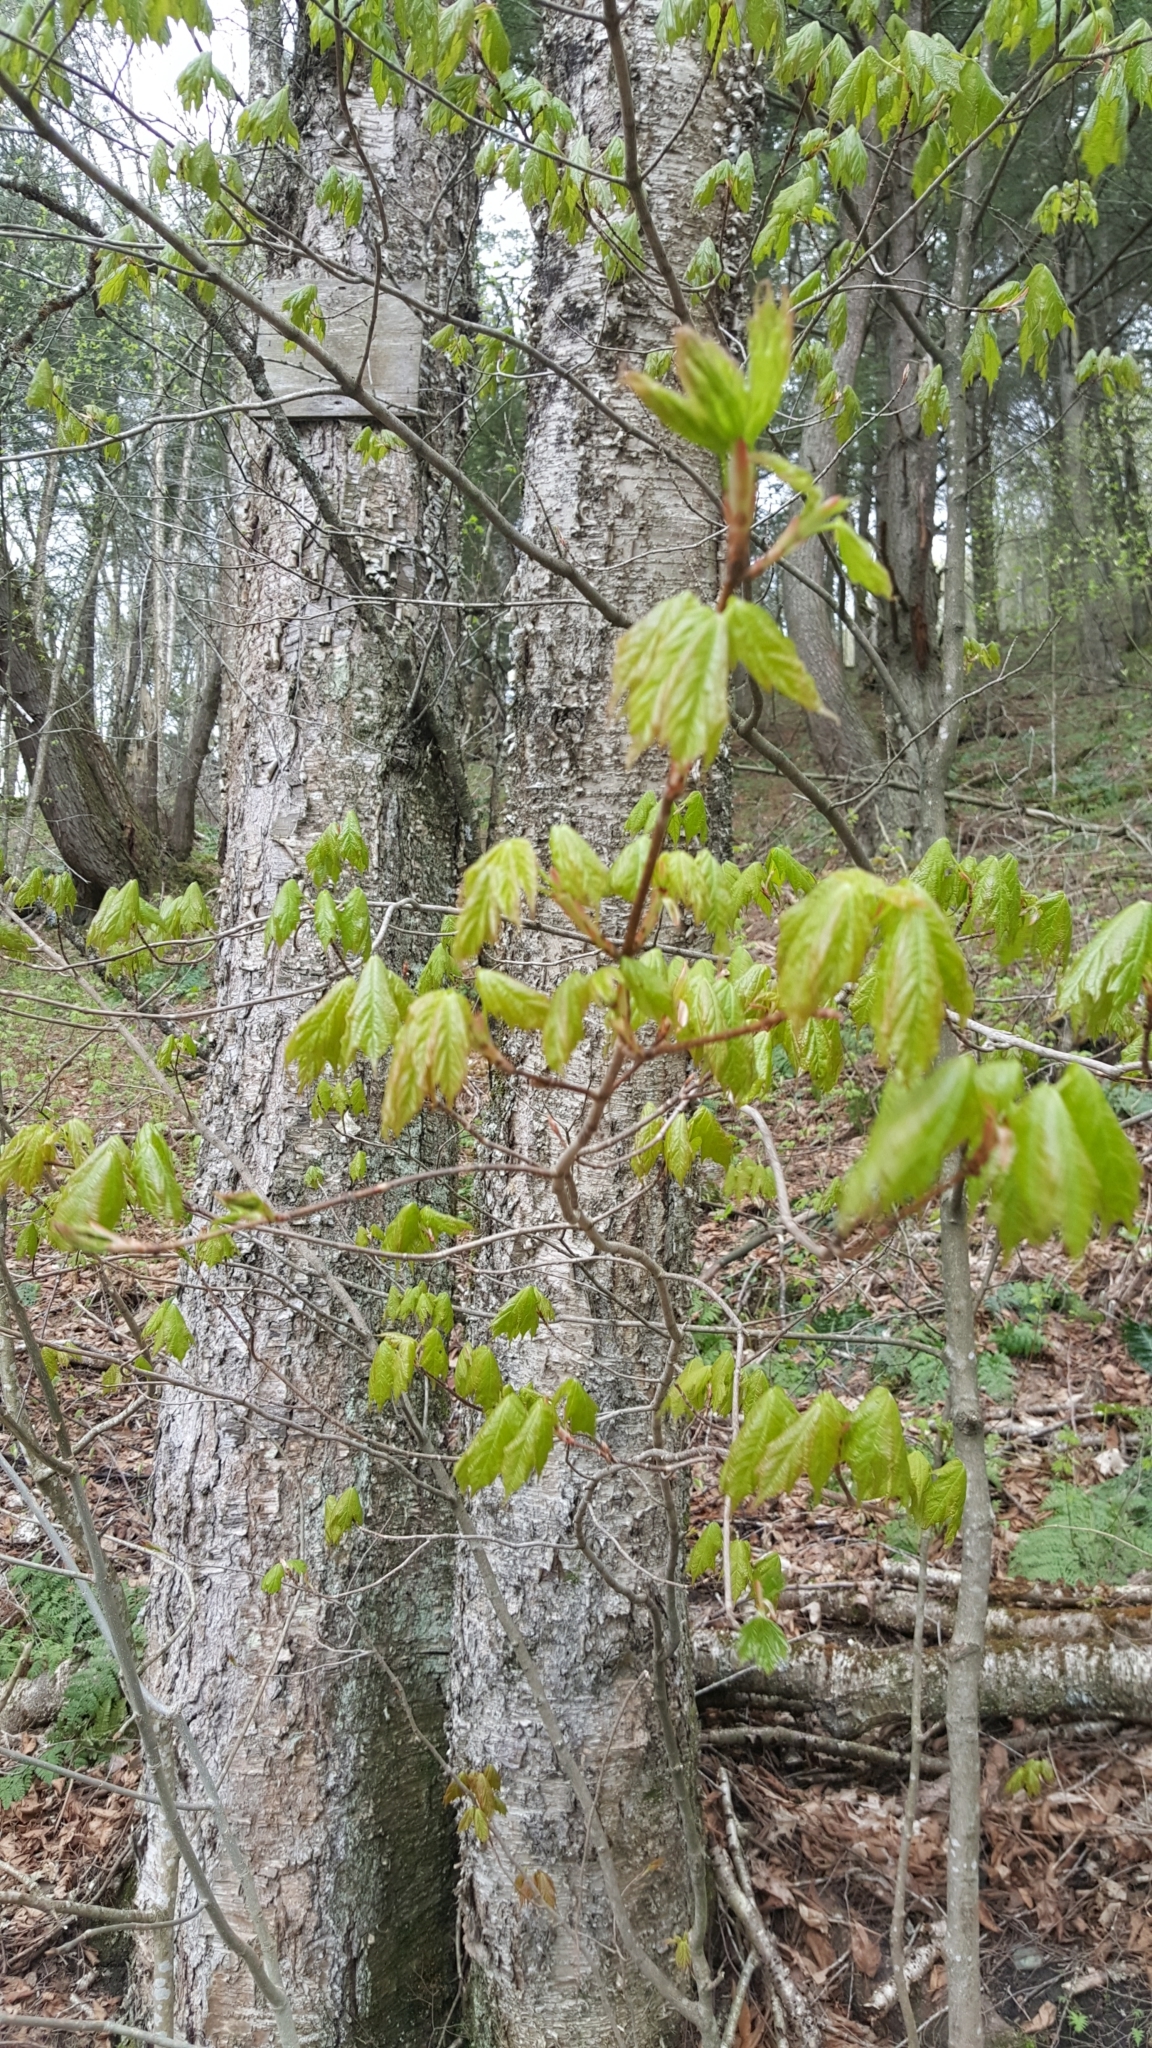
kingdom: Plantae
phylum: Tracheophyta
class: Magnoliopsida
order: Sapindales
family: Sapindaceae
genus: Acer
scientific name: Acer saccharum
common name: Sugar maple
